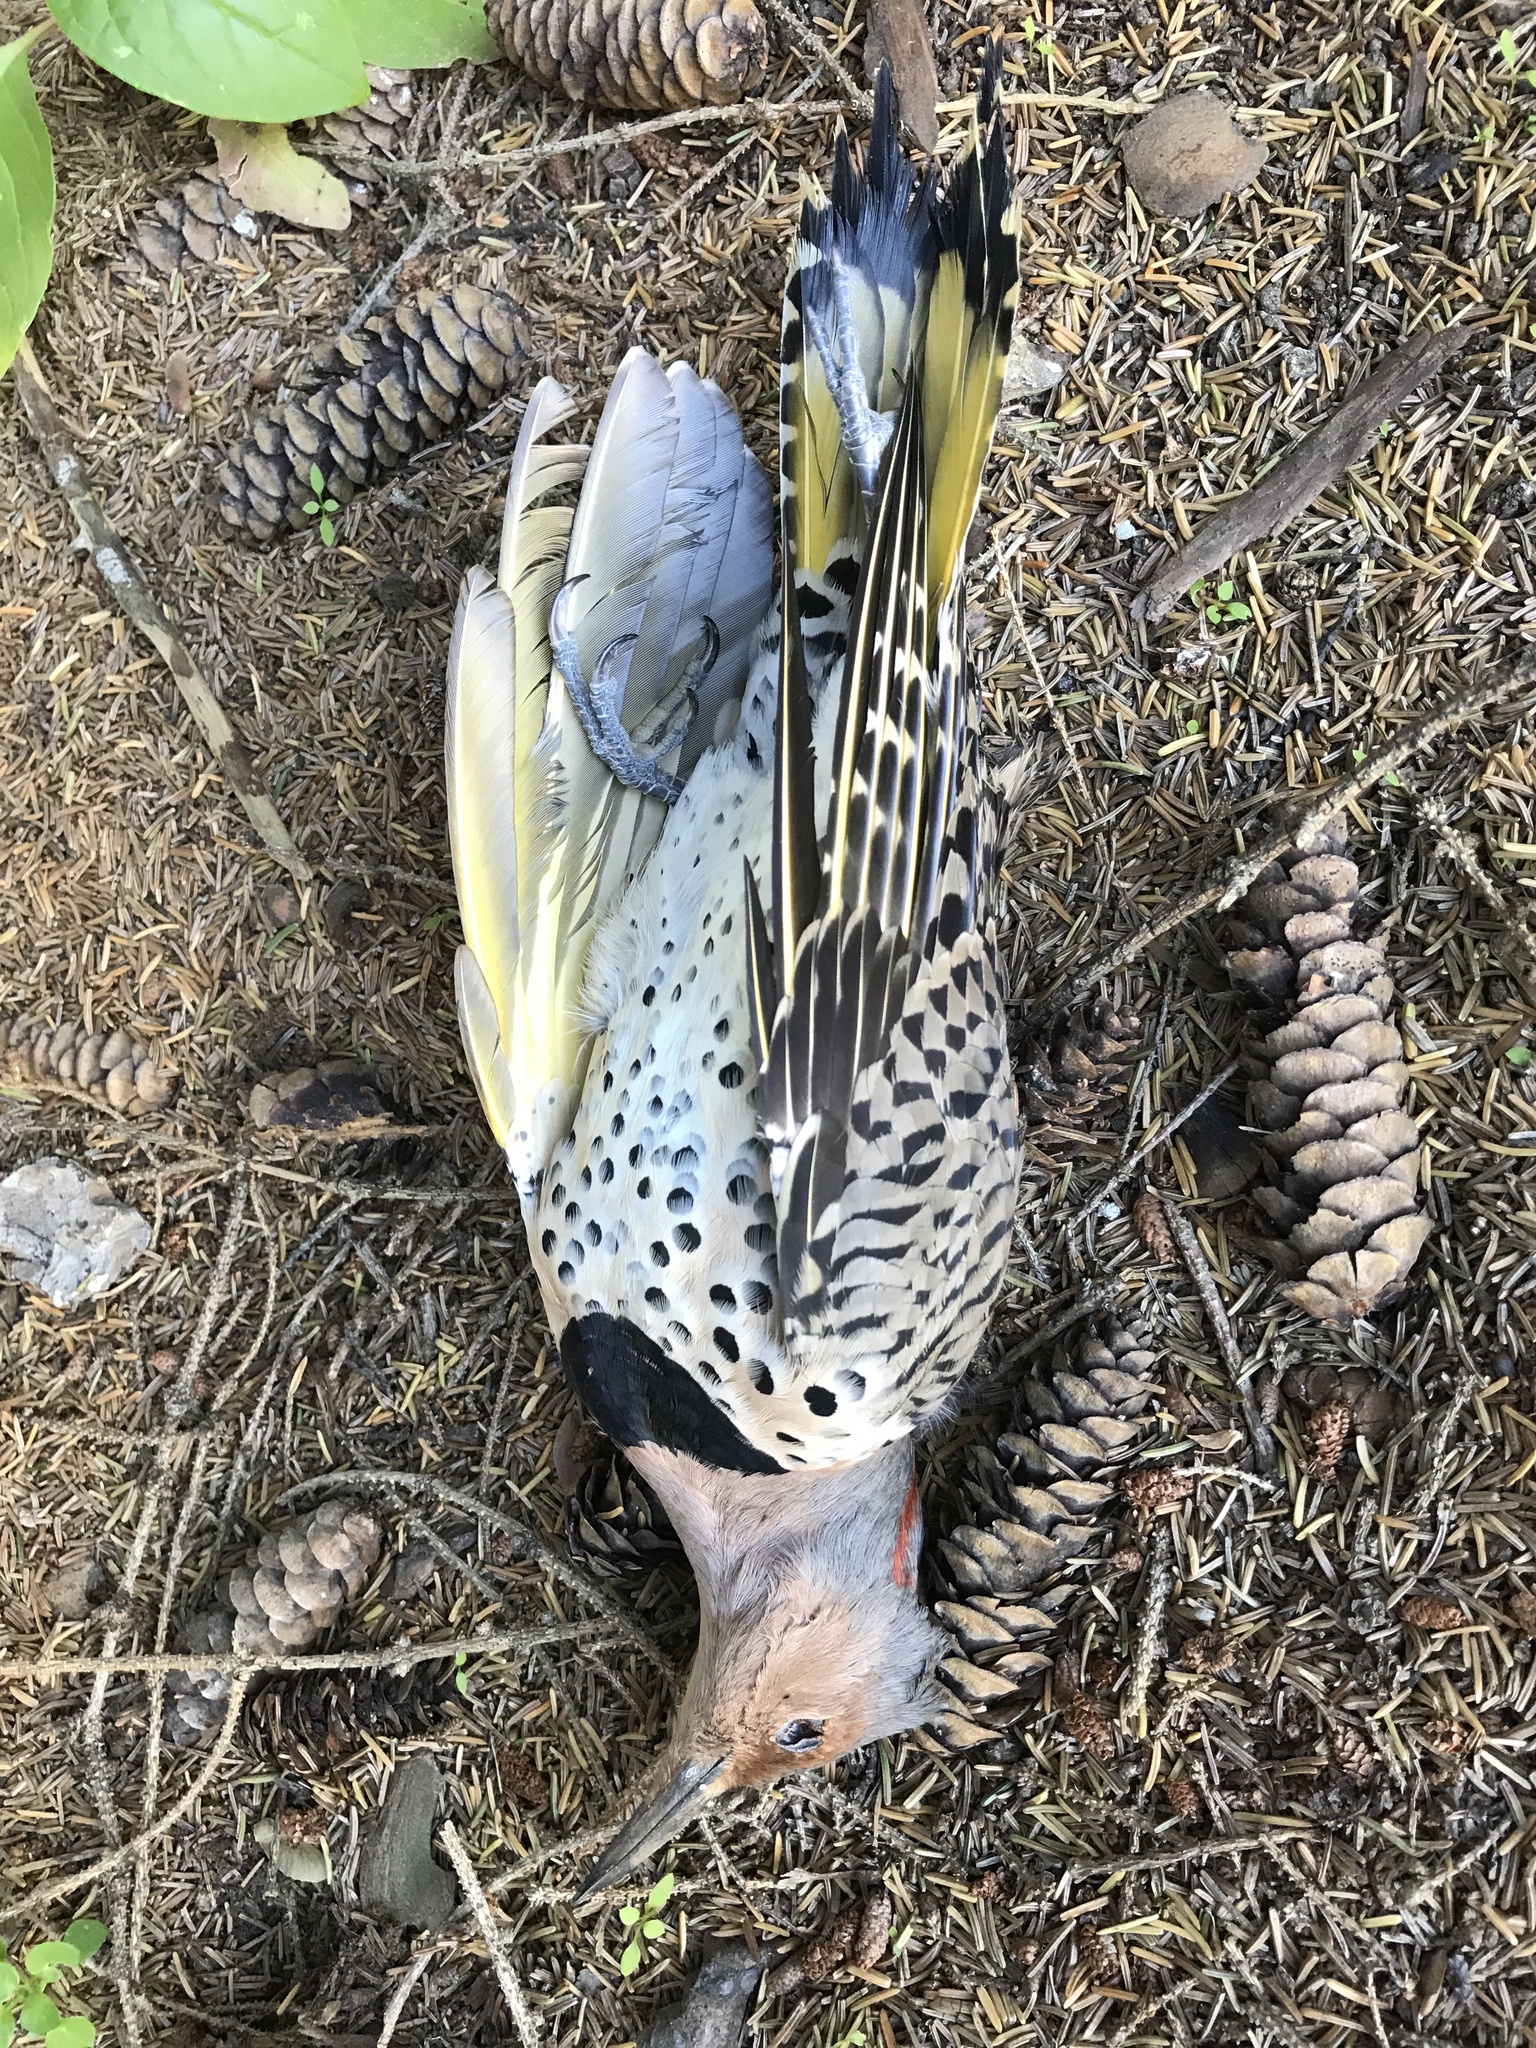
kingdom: Animalia
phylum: Chordata
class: Aves
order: Piciformes
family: Picidae
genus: Colaptes
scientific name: Colaptes auratus
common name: Northern flicker
